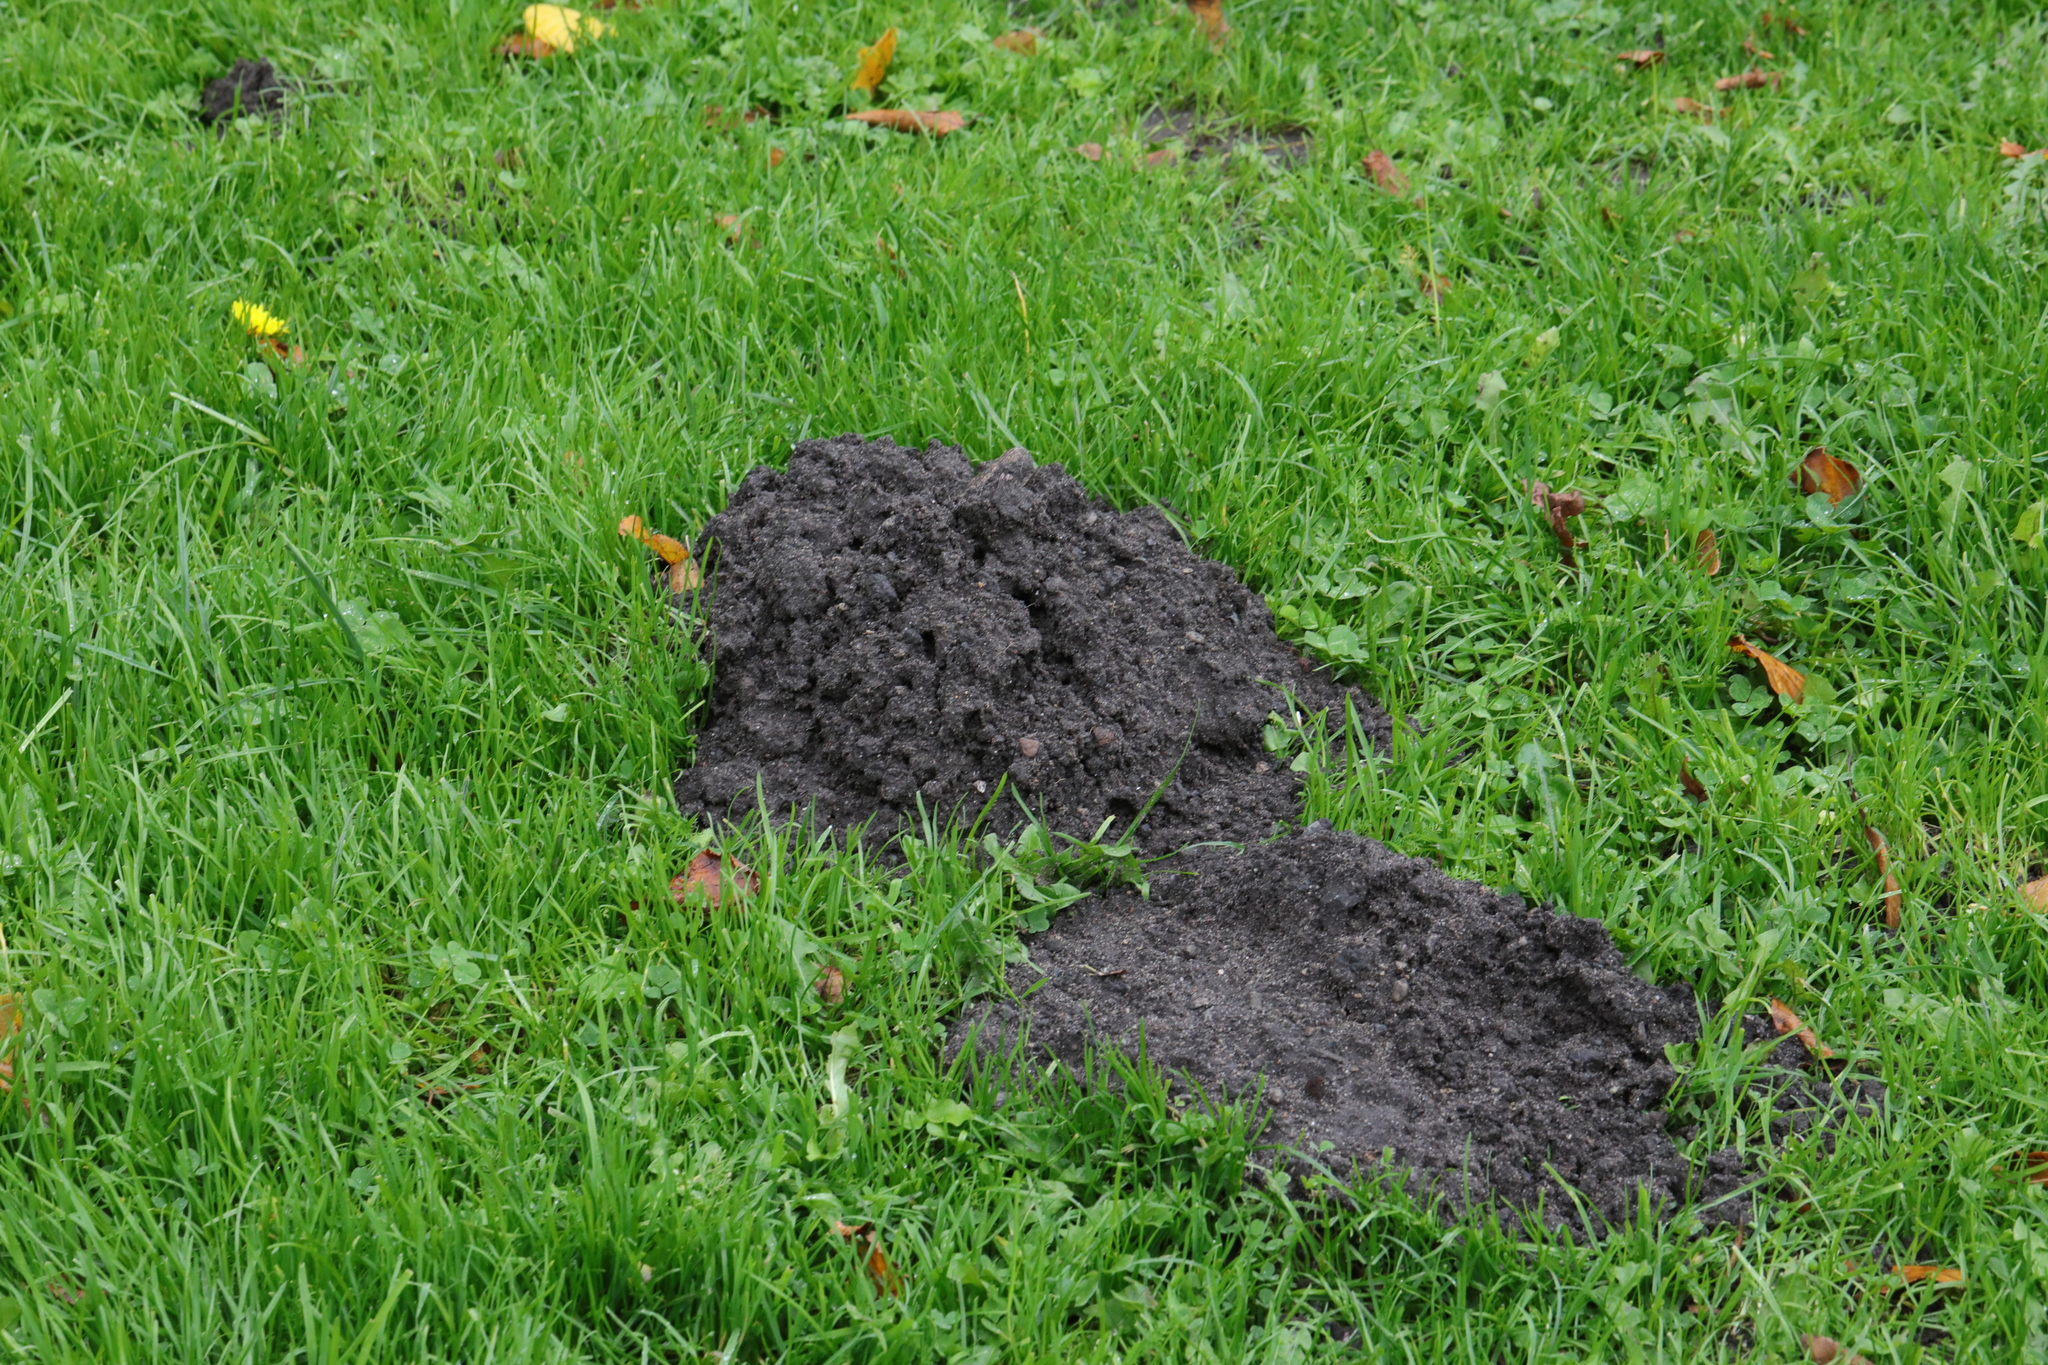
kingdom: Animalia
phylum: Chordata
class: Mammalia
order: Soricomorpha
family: Talpidae
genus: Talpa
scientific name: Talpa europaea
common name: European mole
